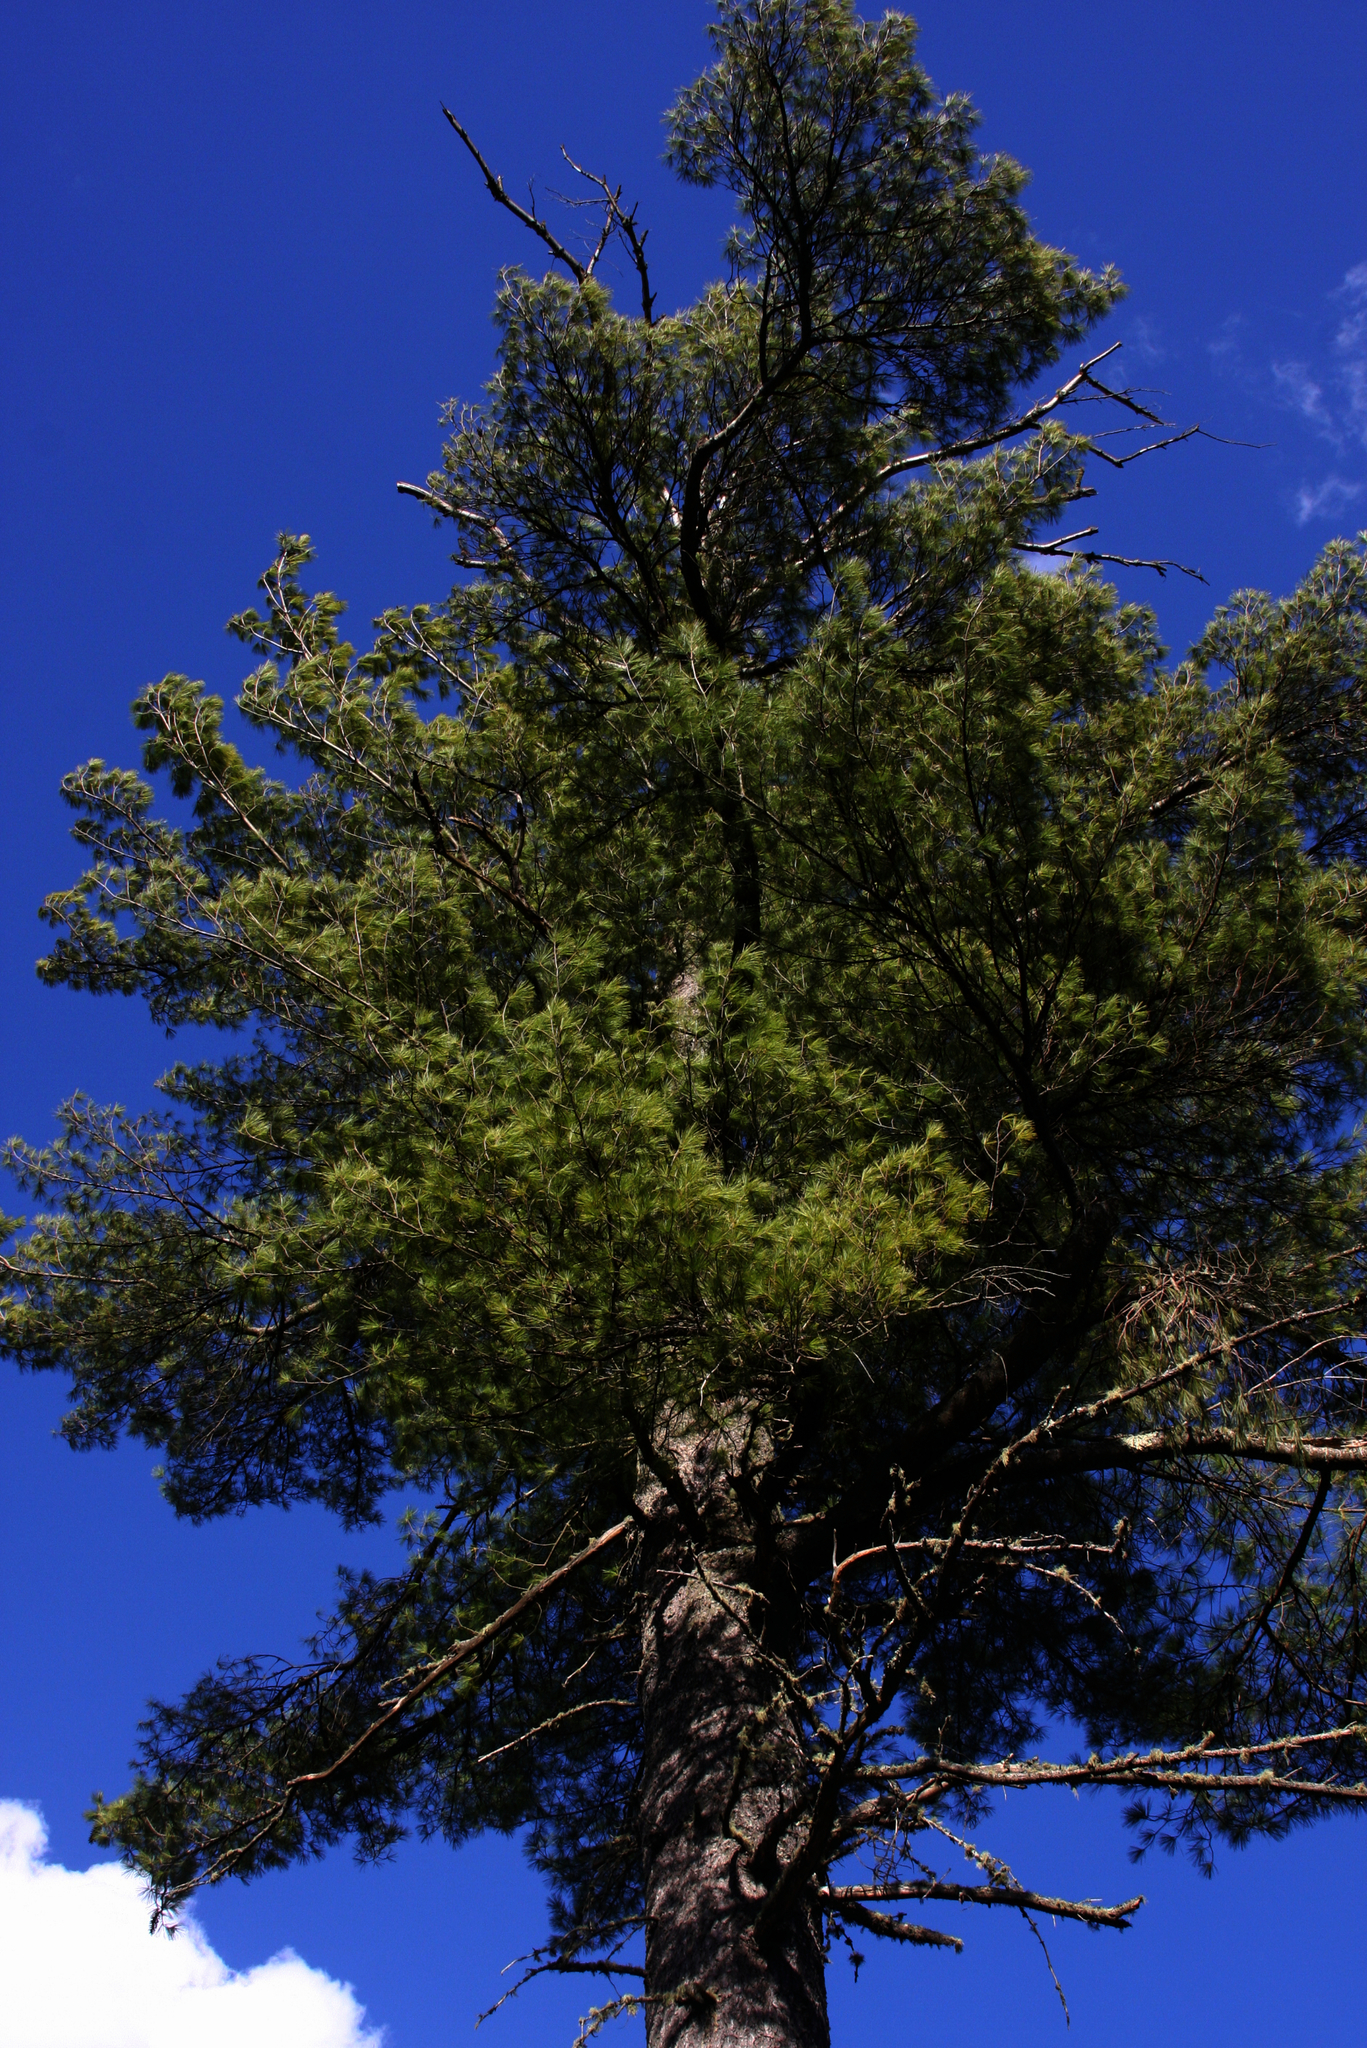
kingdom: Plantae
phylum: Tracheophyta
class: Pinopsida
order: Pinales
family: Pinaceae
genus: Pinus
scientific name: Pinus strobus
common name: Weymouth pine
